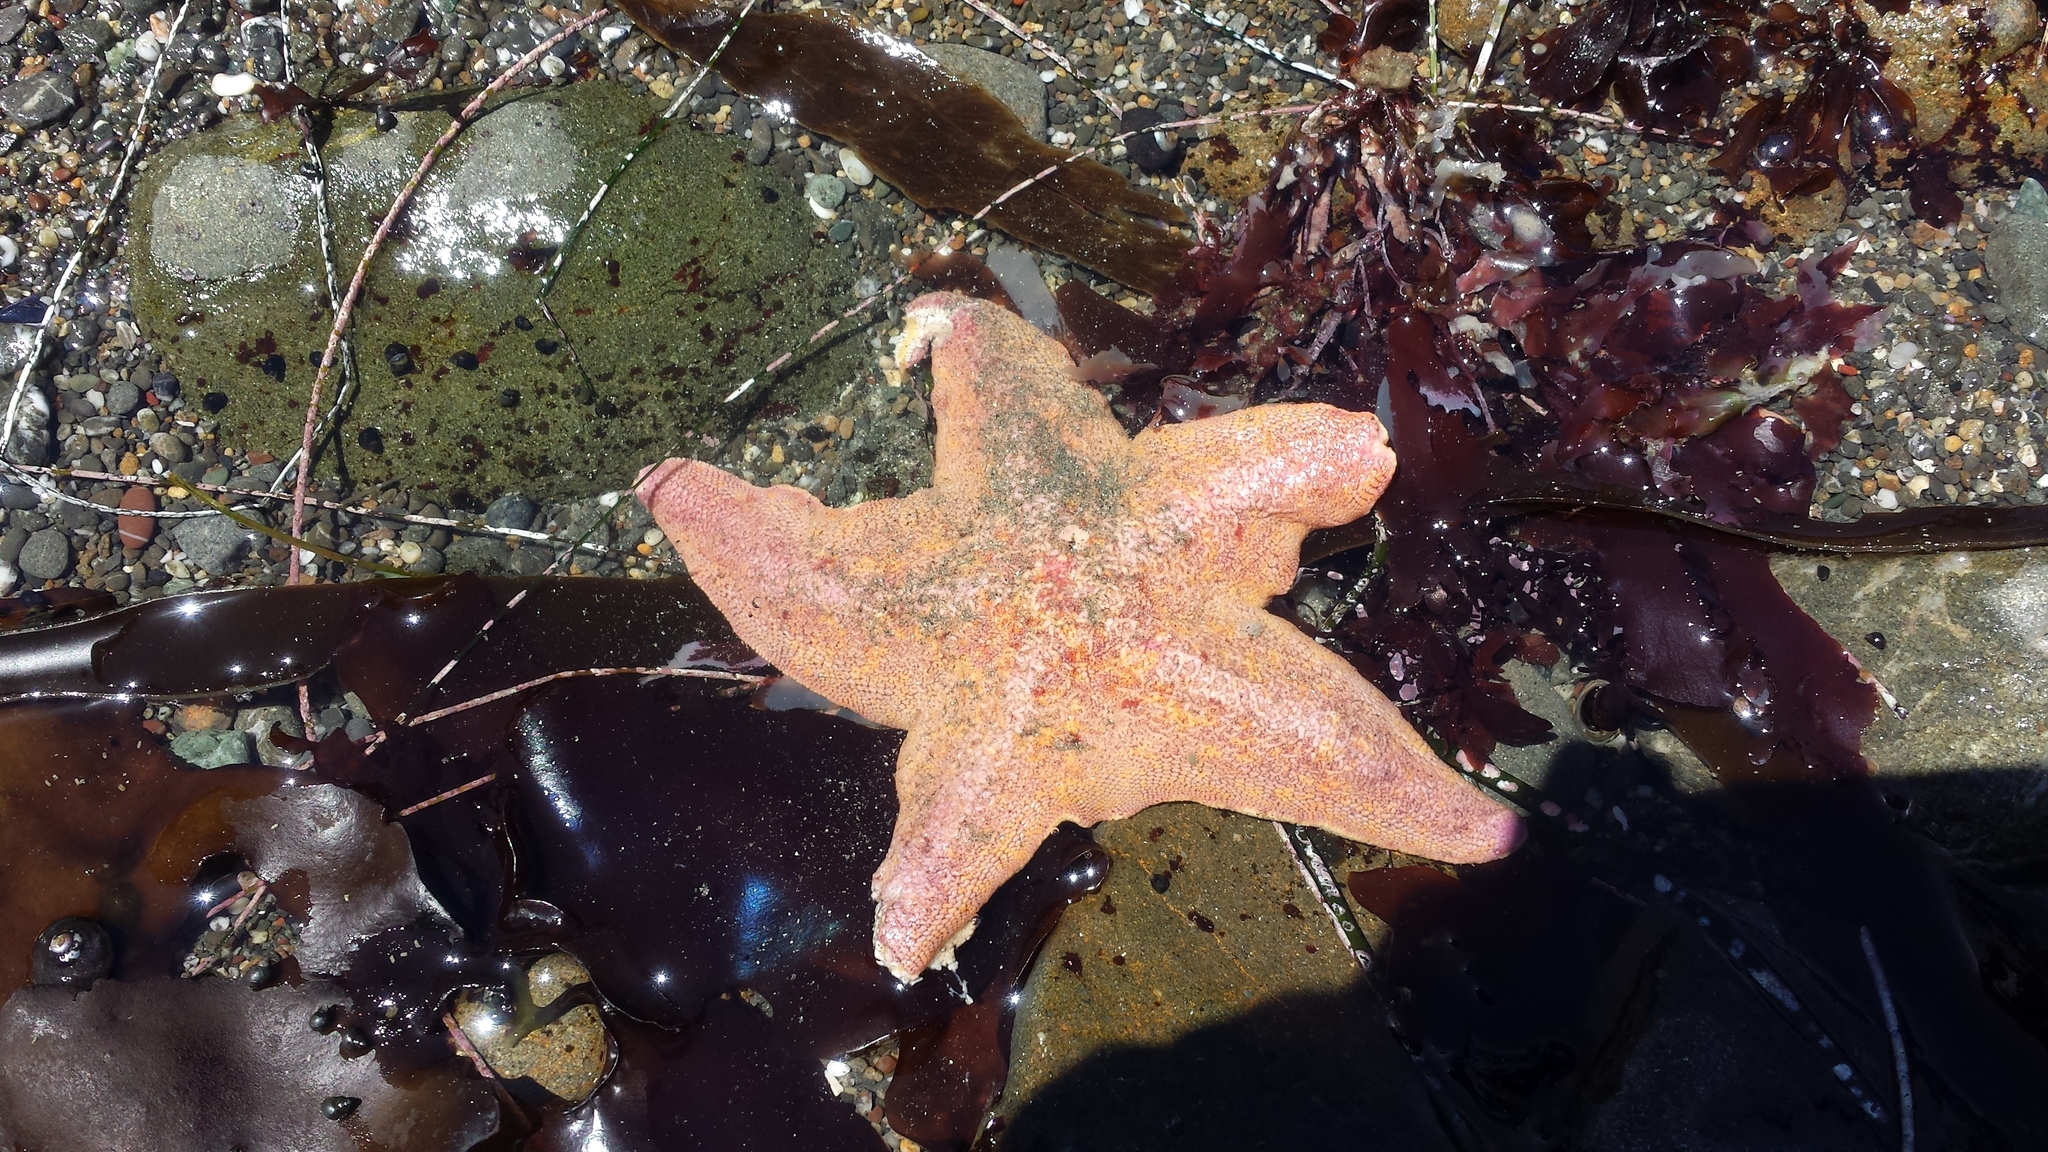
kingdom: Animalia
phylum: Echinodermata
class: Asteroidea
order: Valvatida
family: Asterinidae
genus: Patiria
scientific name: Patiria miniata
